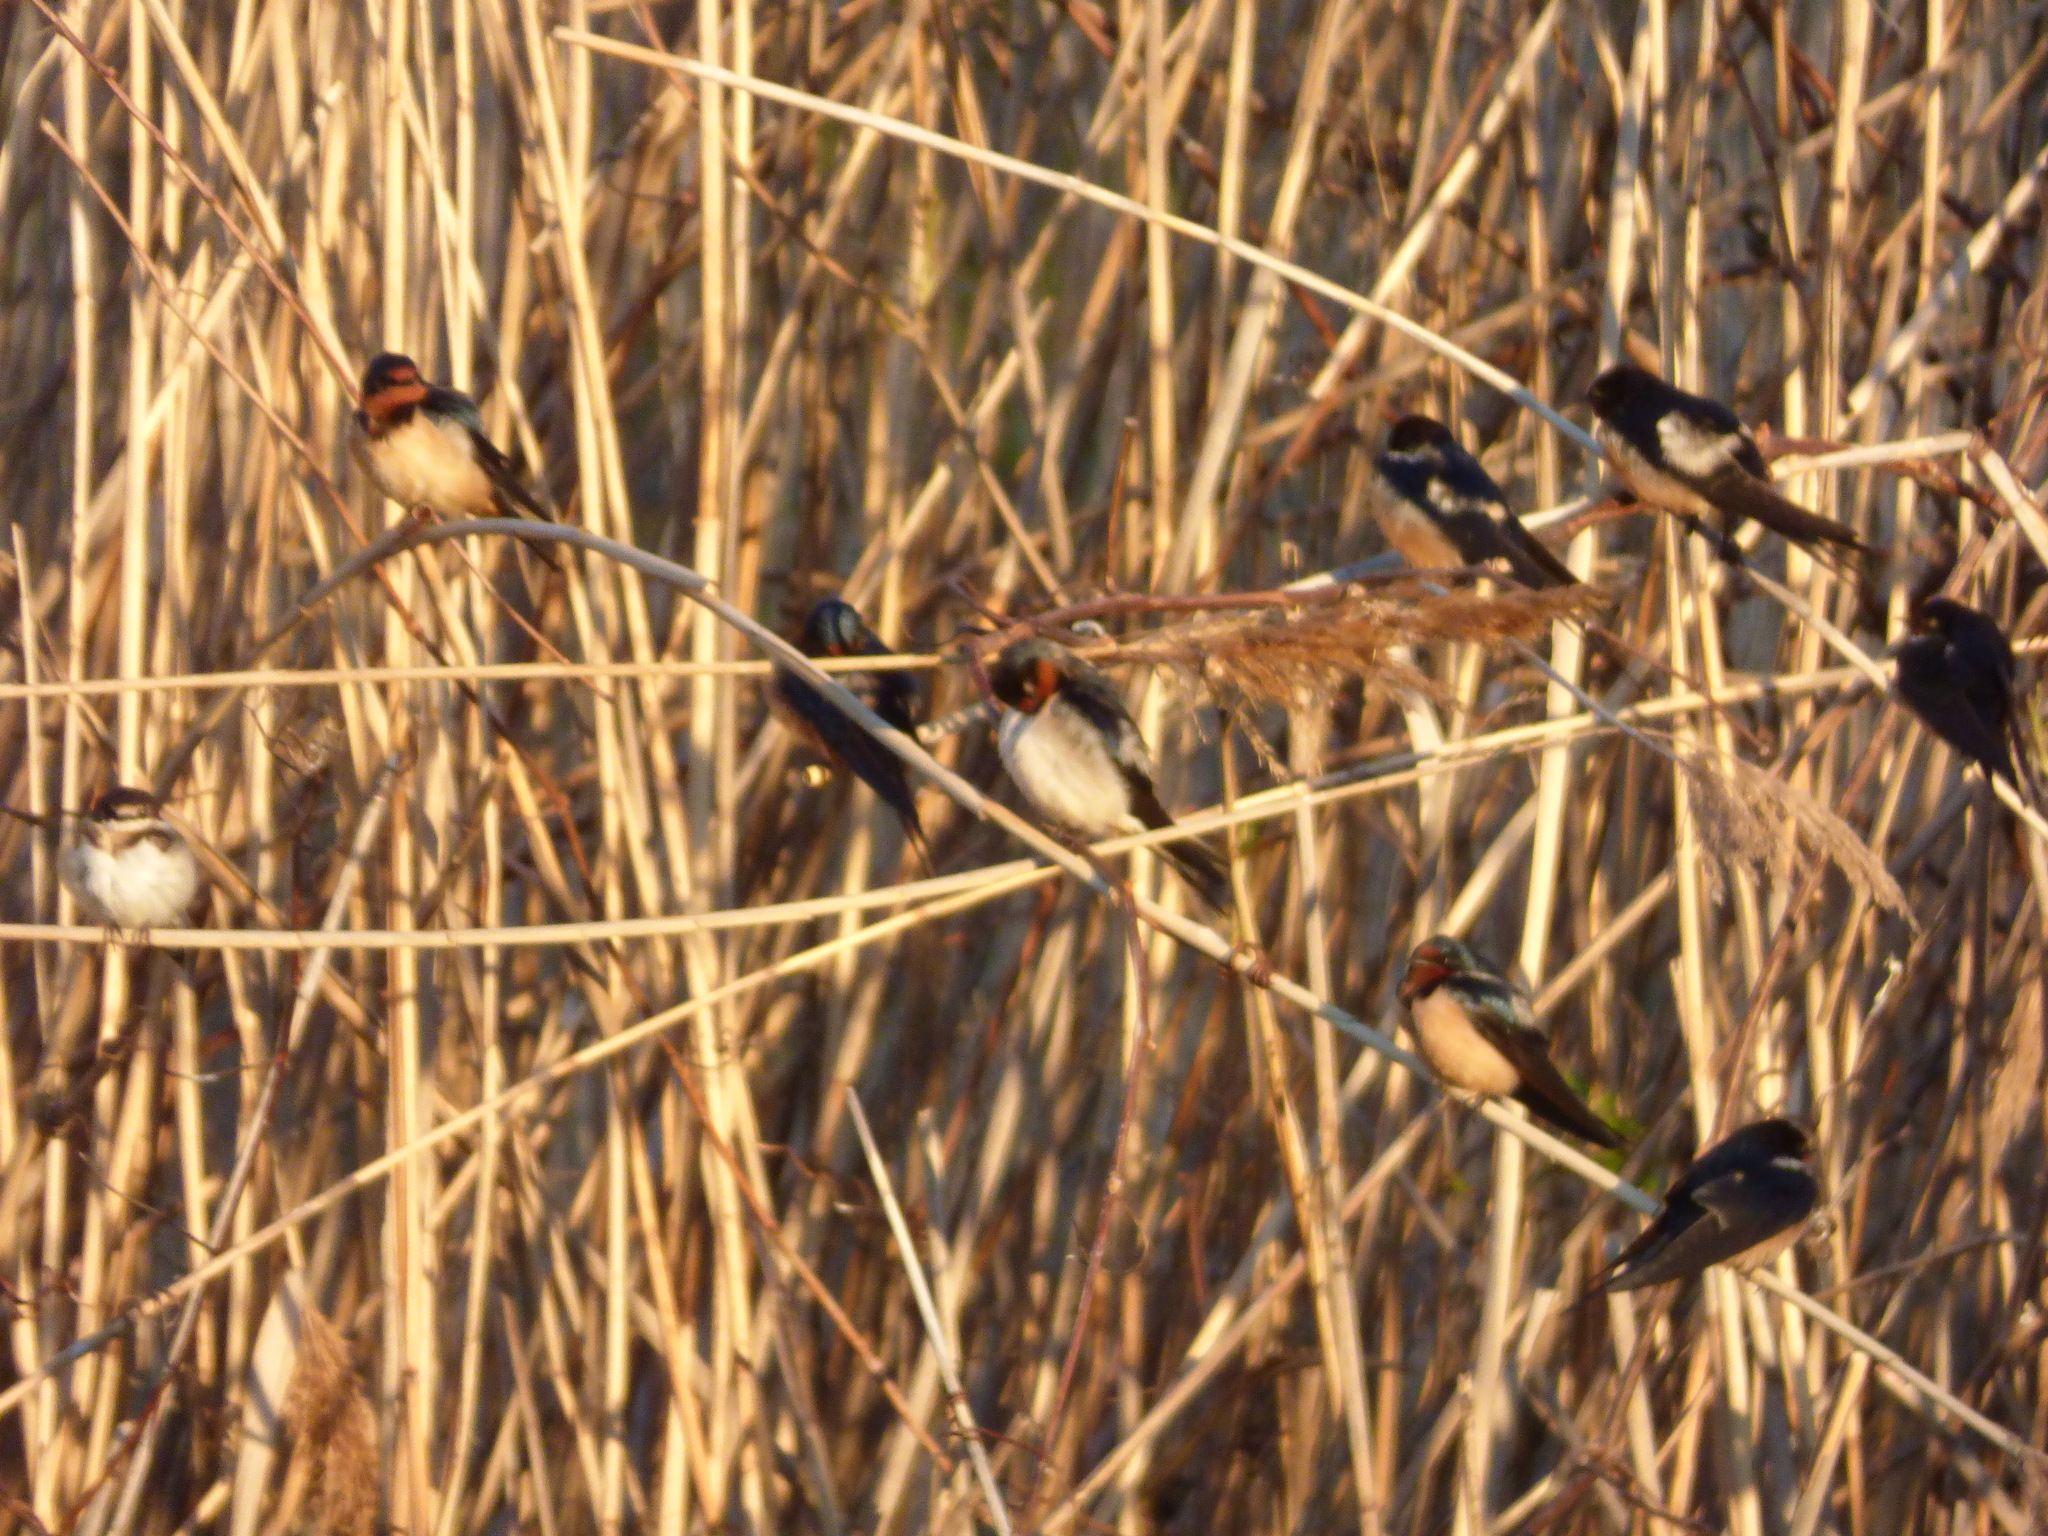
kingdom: Animalia
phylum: Chordata
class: Aves
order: Passeriformes
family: Hirundinidae
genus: Hirundo
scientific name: Hirundo rustica
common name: Barn swallow
